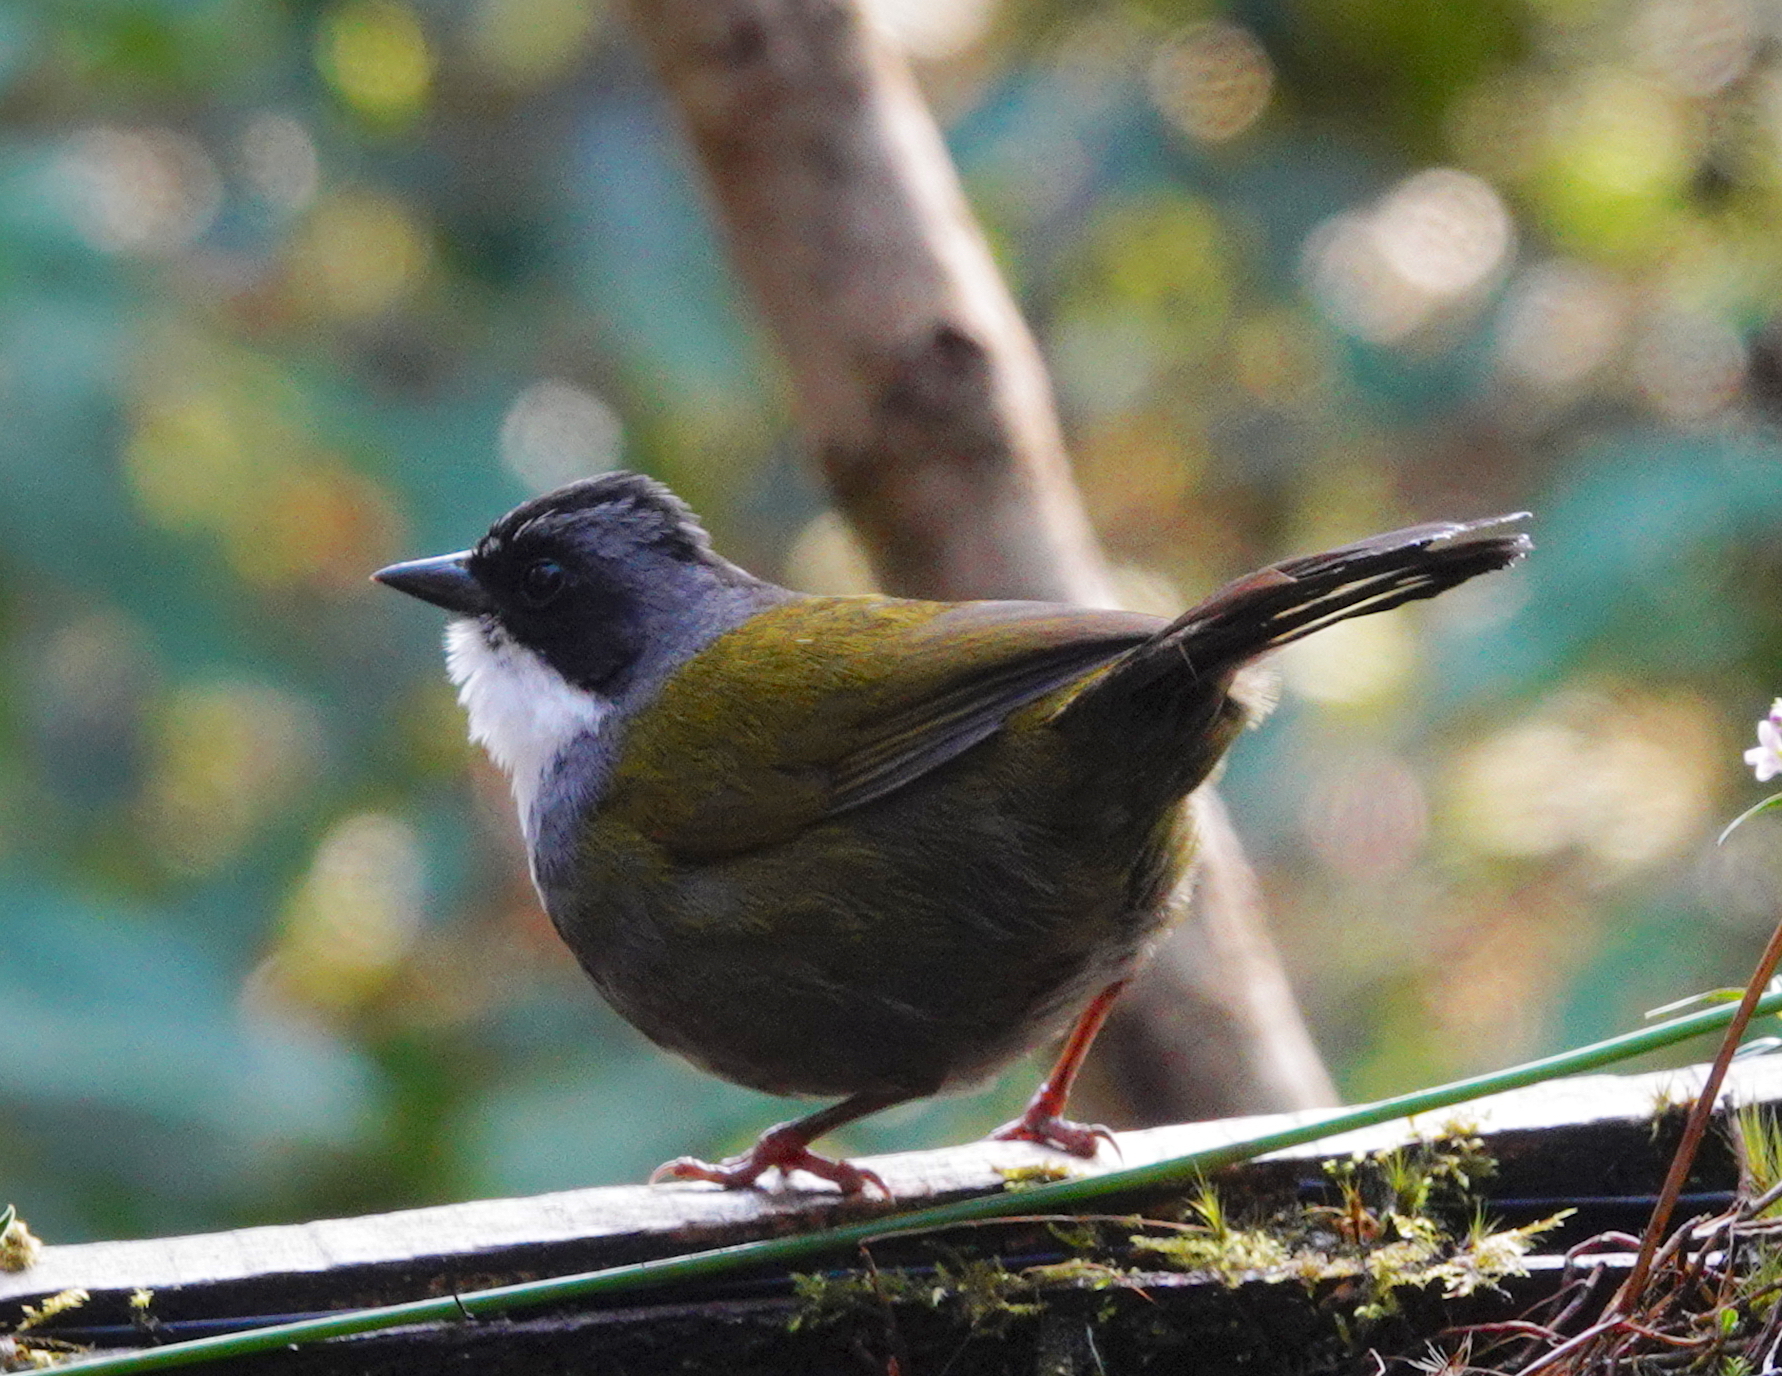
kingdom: Animalia
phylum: Chordata
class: Aves
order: Passeriformes
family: Passerellidae
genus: Arremon
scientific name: Arremon assimilis
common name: Grey-browed brushfinch
